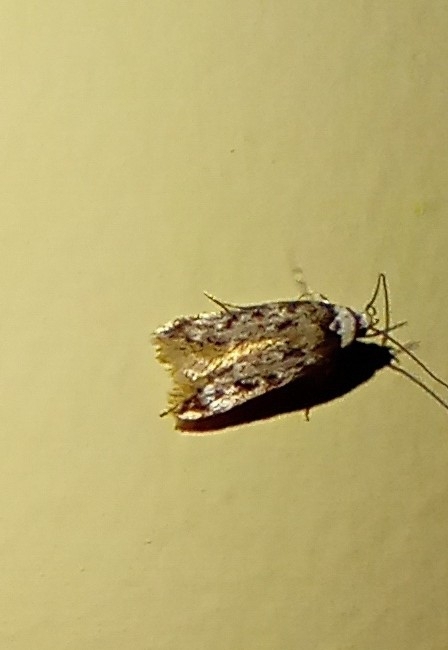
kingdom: Animalia
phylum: Arthropoda
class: Insecta
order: Lepidoptera
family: Oecophoridae
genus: Endrosis
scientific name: Endrosis sarcitrella
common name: White-shouldered house moth
